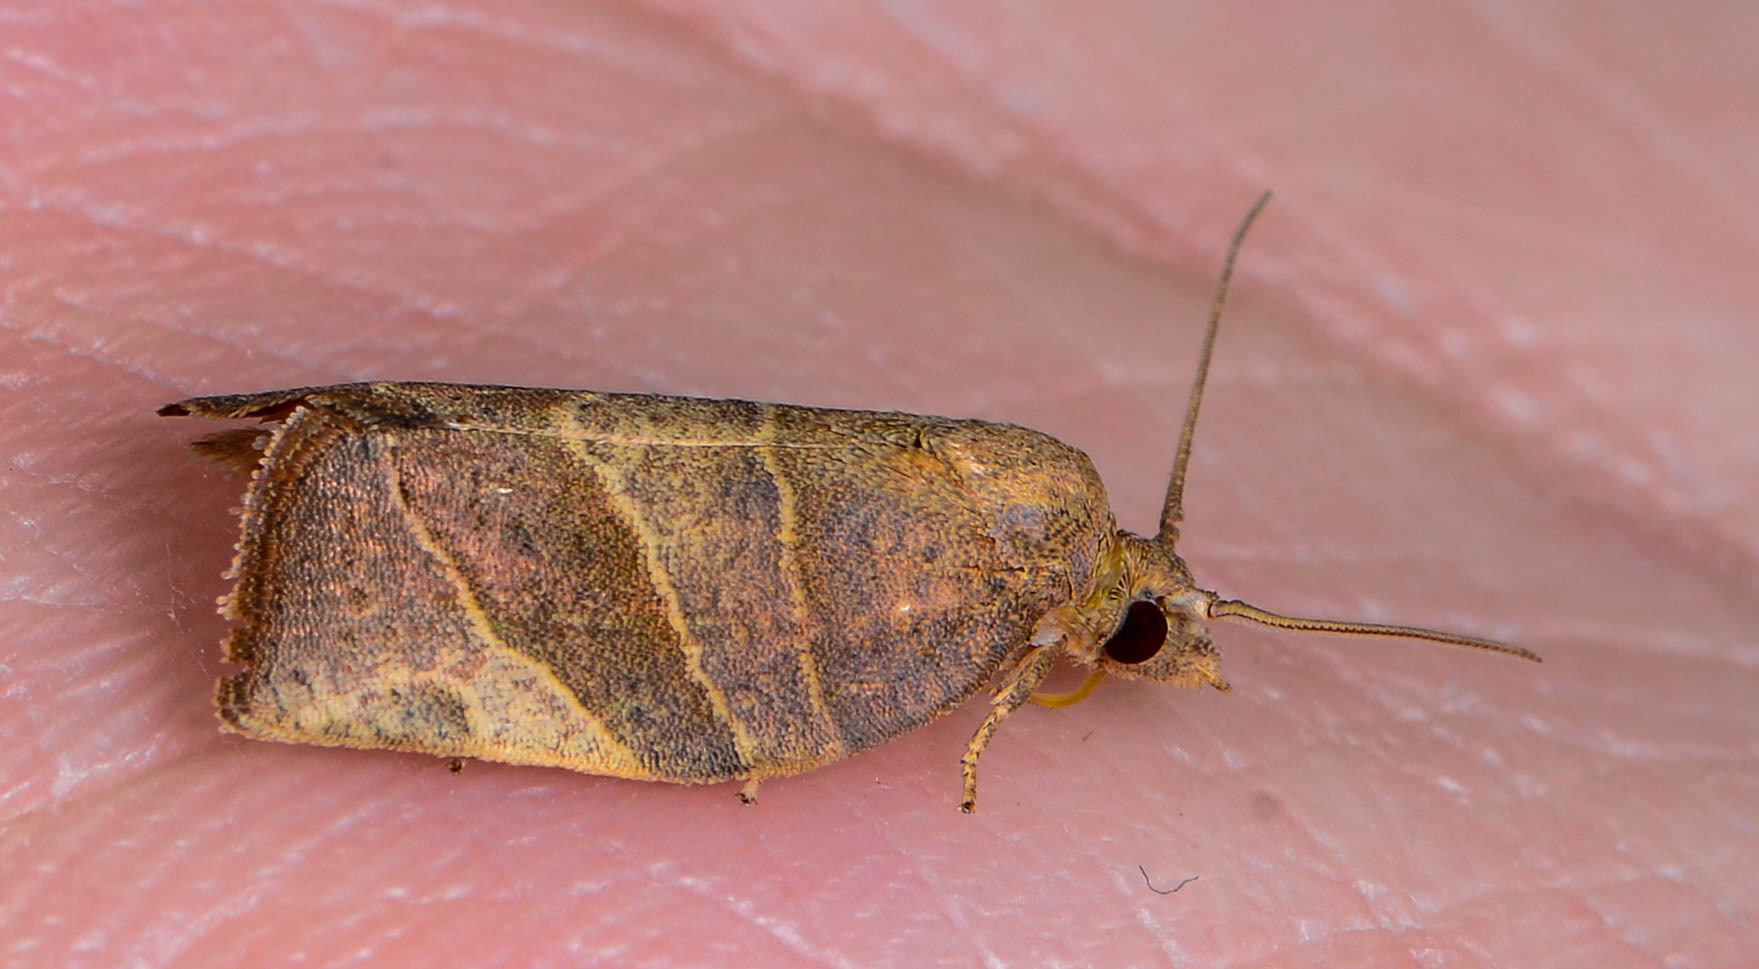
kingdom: Animalia
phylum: Arthropoda
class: Insecta
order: Lepidoptera
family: Tortricidae
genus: Pandemis
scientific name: Pandemis limitata
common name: Three-lined leafroller moth
